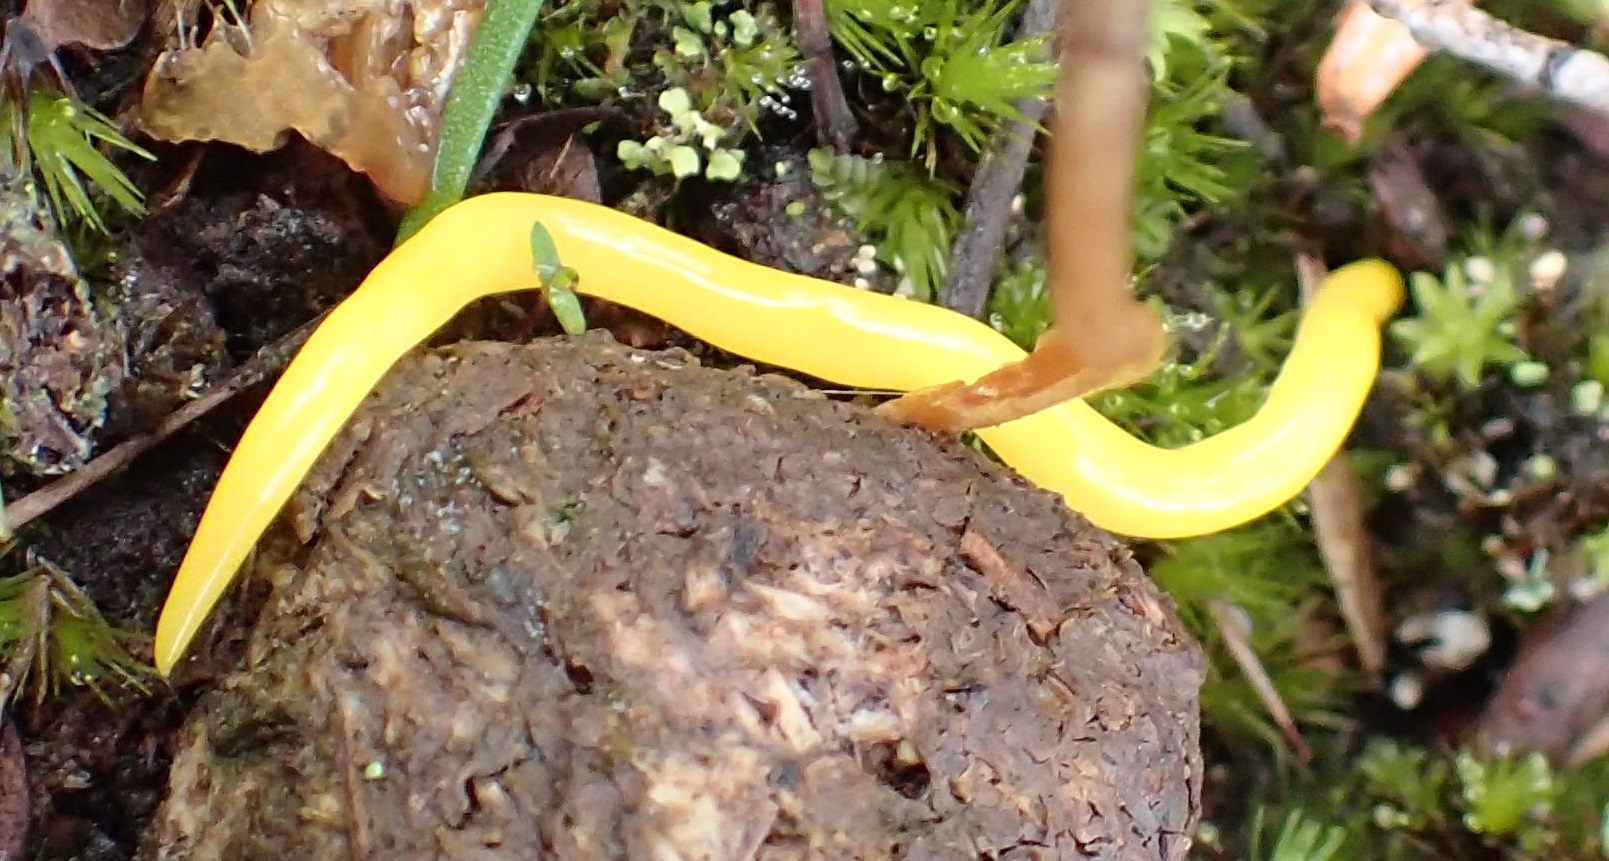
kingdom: Animalia
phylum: Platyhelminthes
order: Tricladida
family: Geoplanidae
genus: Fletchamia
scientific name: Fletchamia sugdeni
